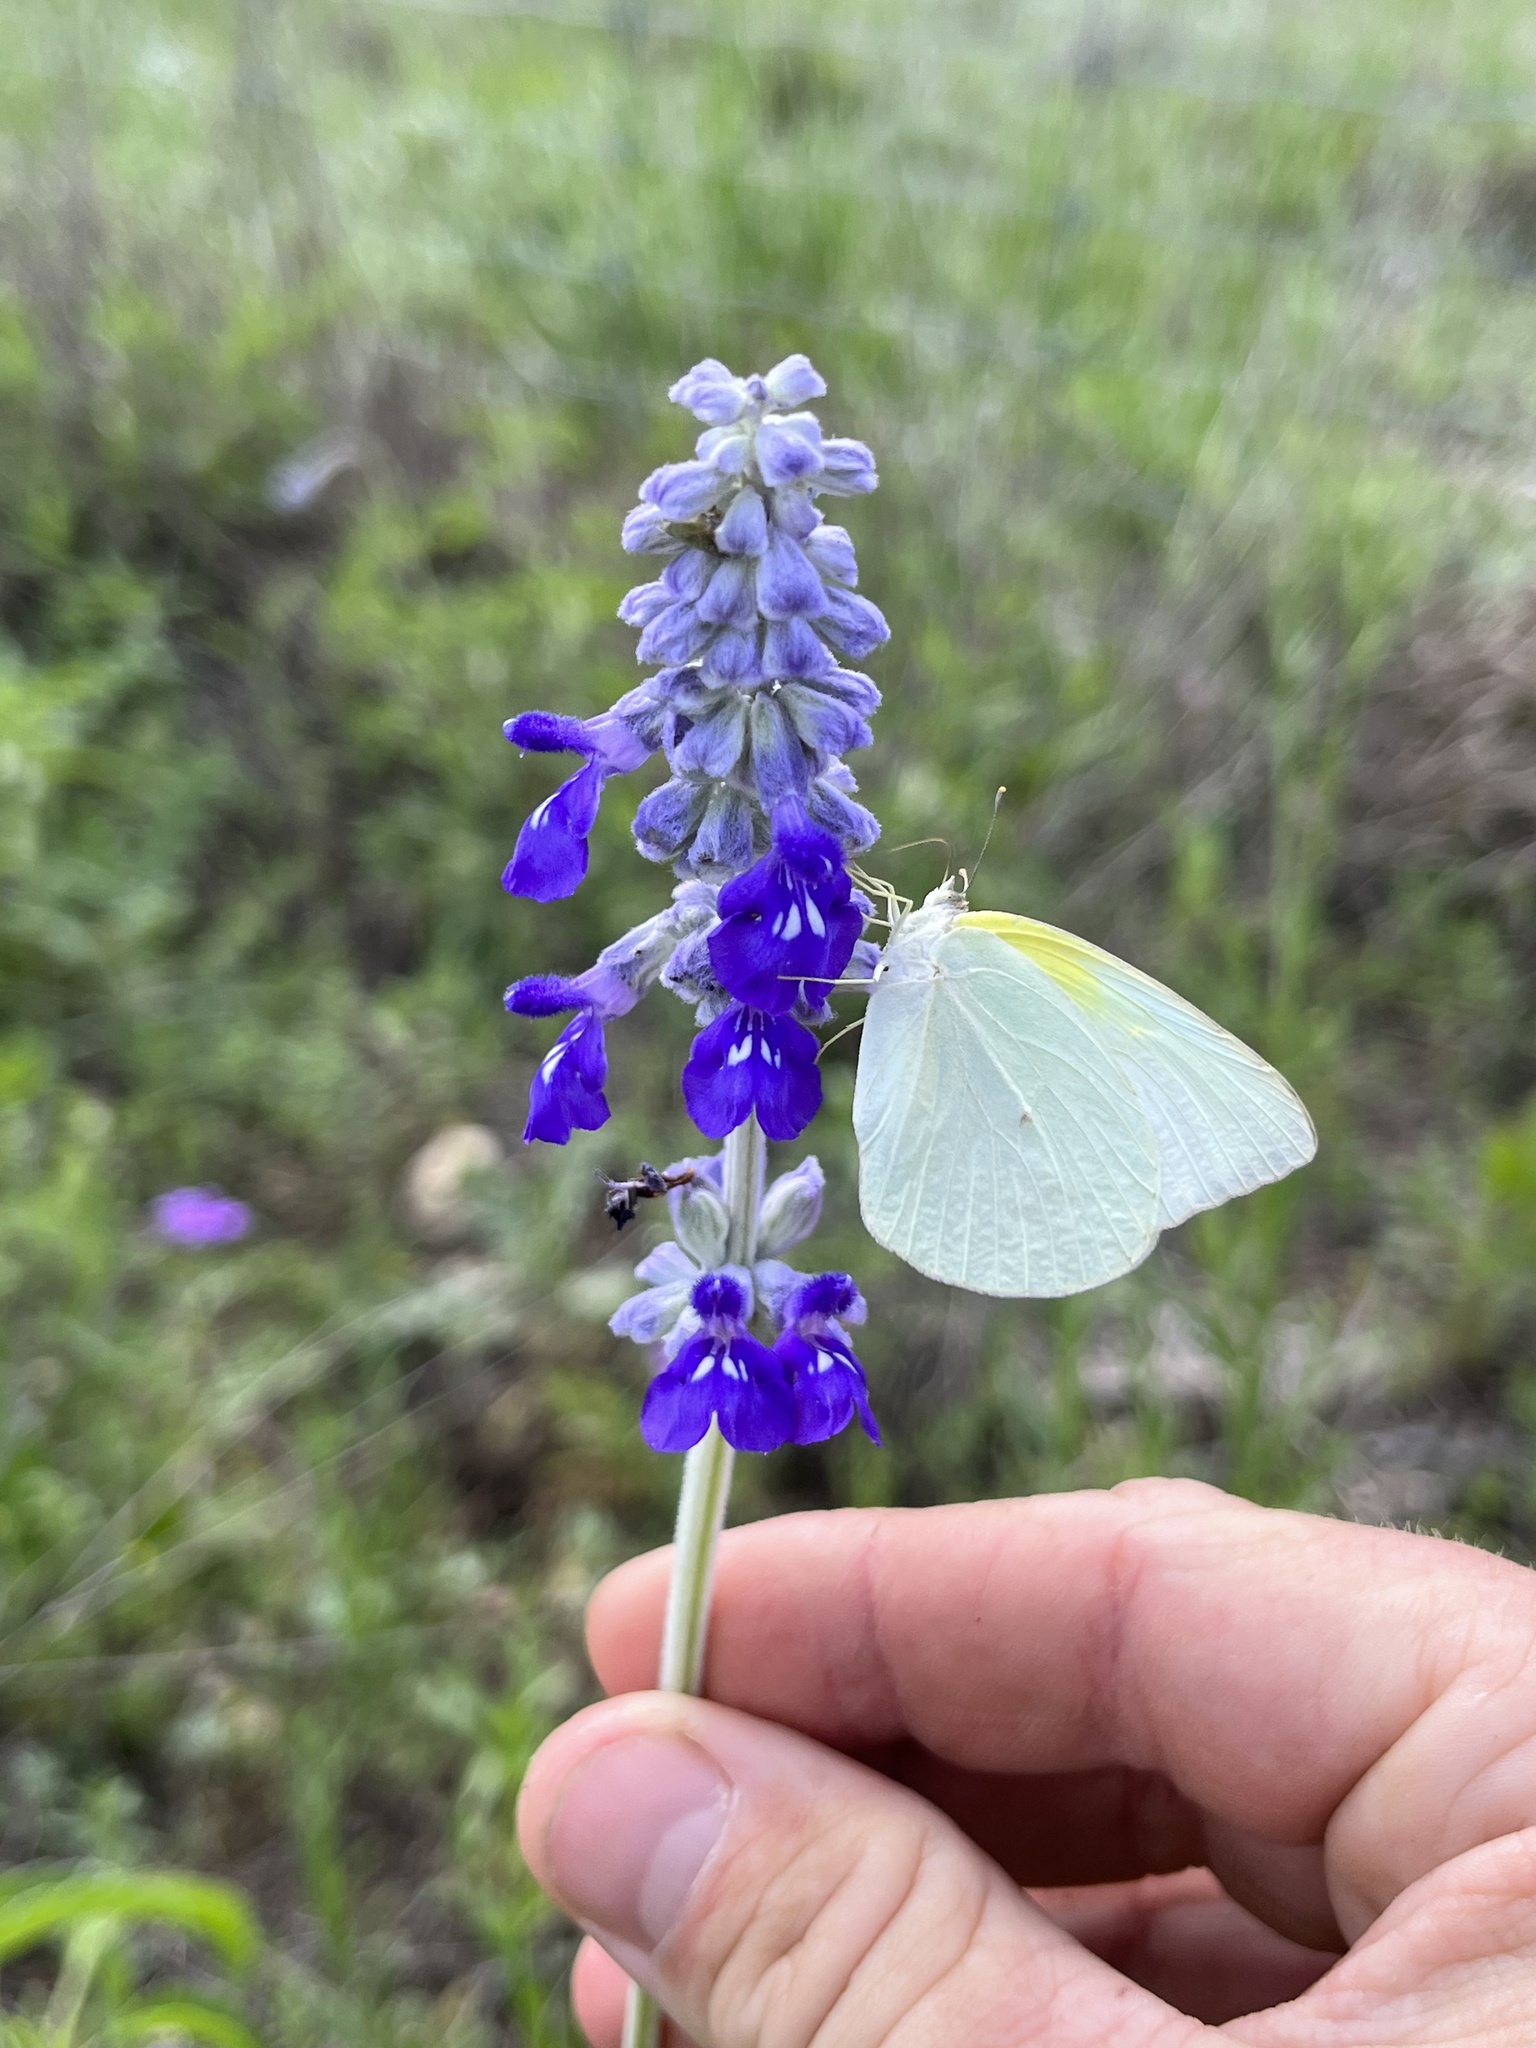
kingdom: Animalia
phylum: Arthropoda
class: Insecta
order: Lepidoptera
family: Pieridae
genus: Kricogonia
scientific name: Kricogonia lyside
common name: Guayacan sulphur,
